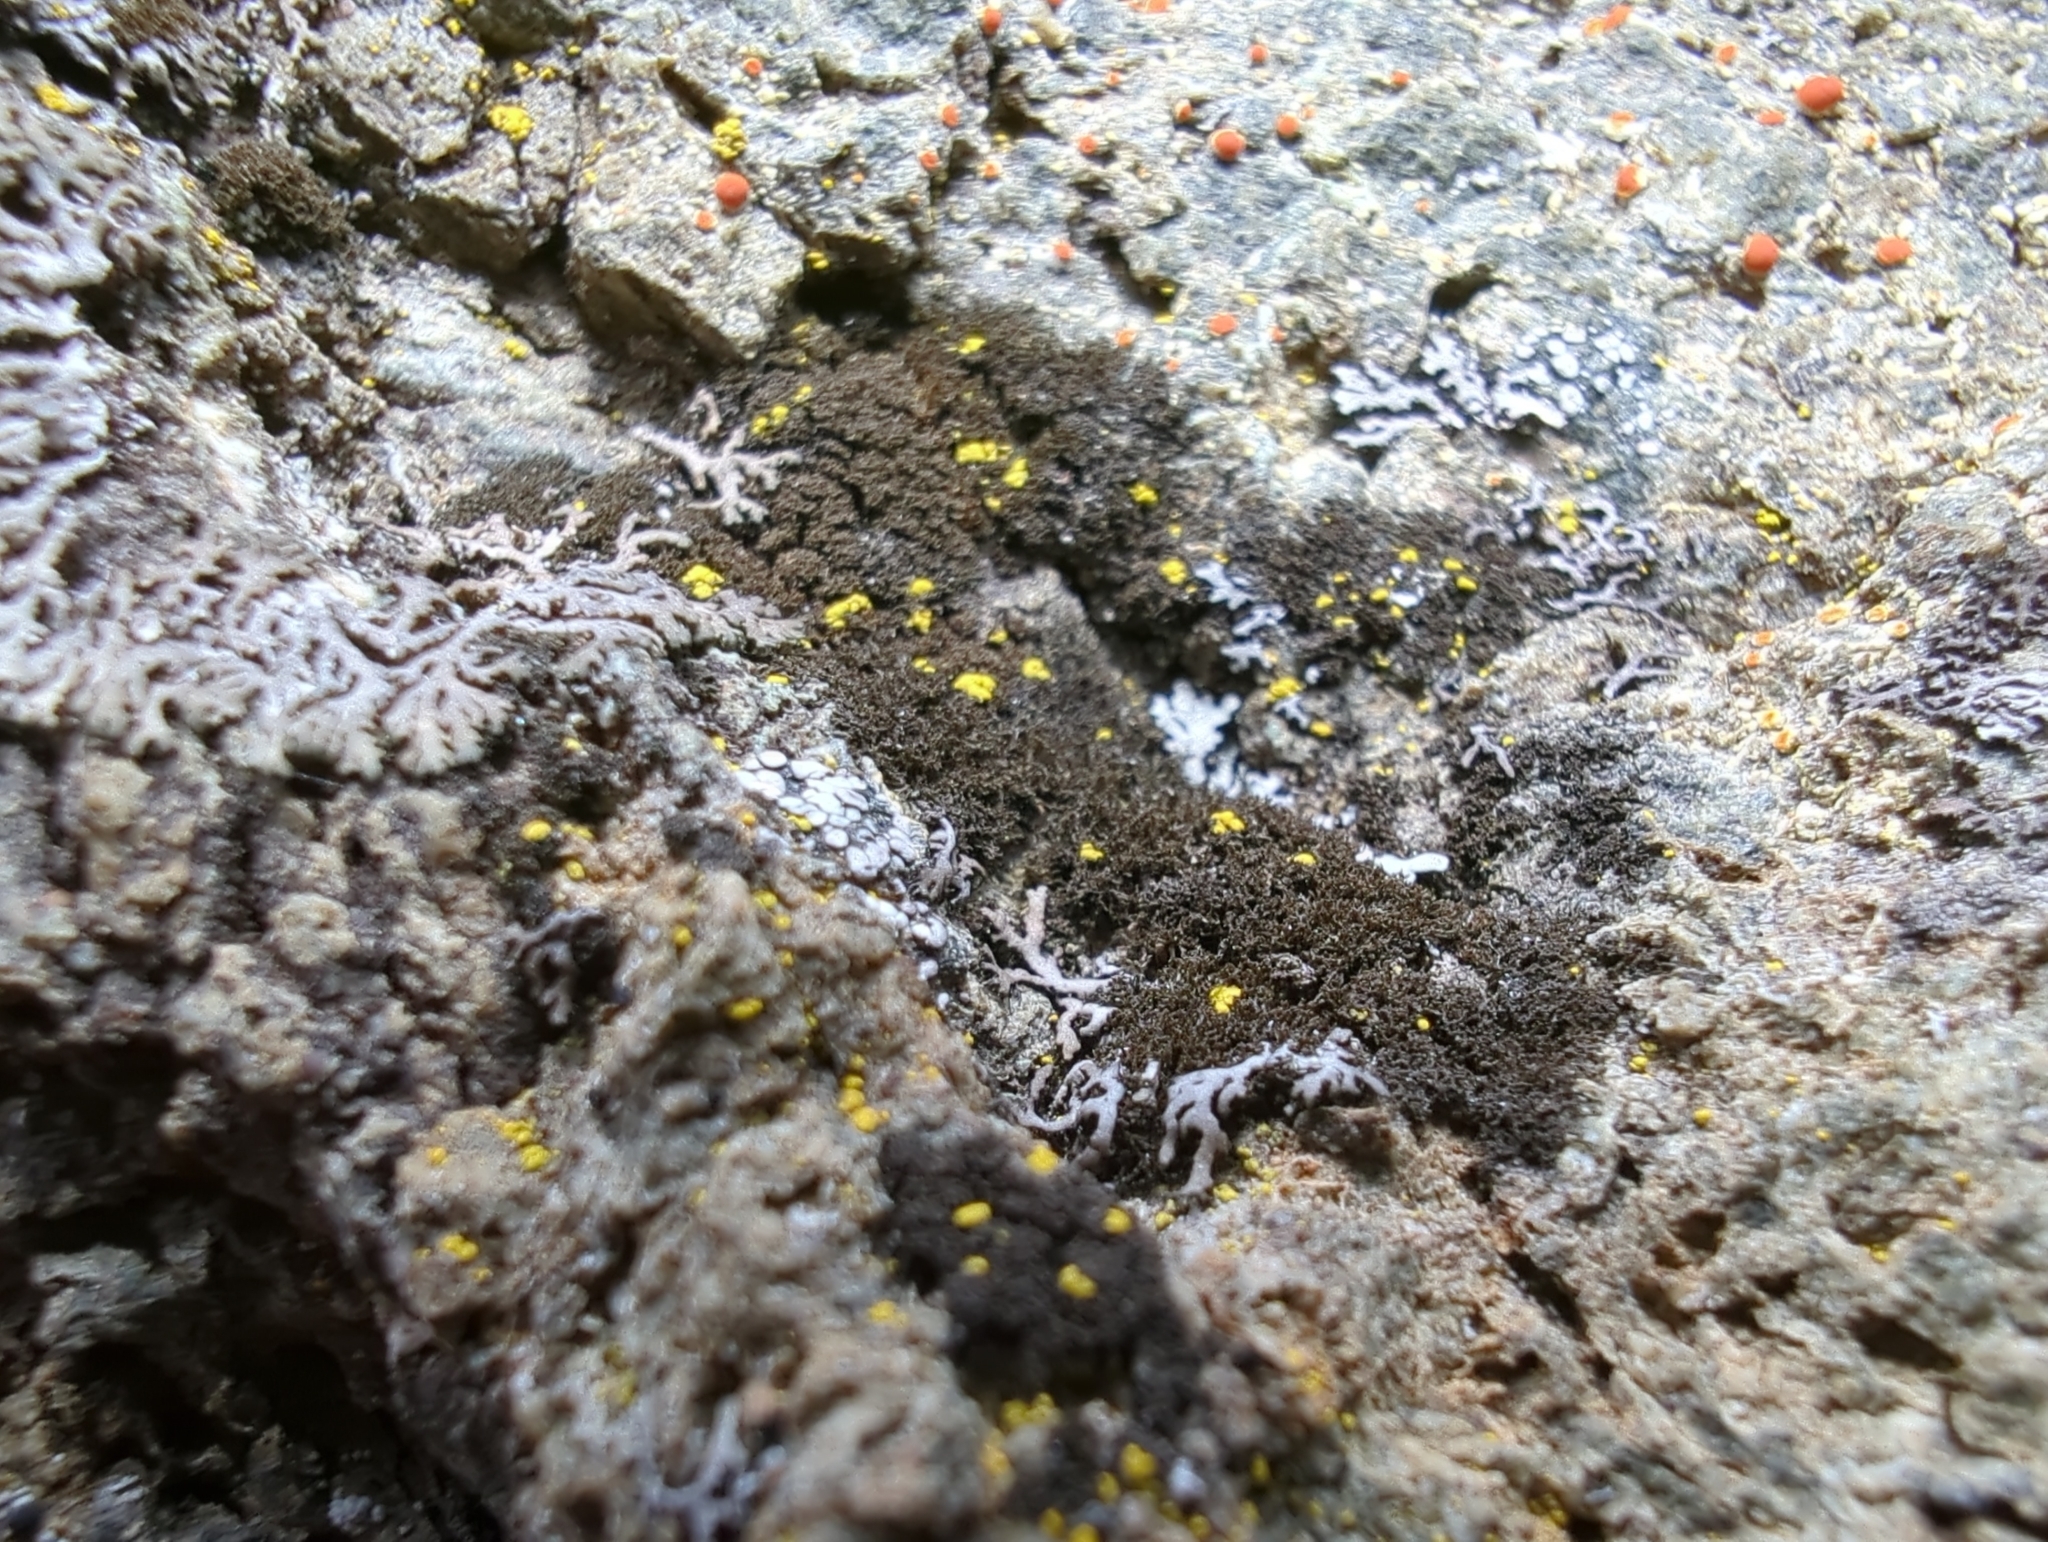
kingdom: Fungi
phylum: Ascomycota
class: Lecanoromycetes
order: Peltigerales
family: Coccocarpiaceae
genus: Spilonema
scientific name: Spilonema revertens
